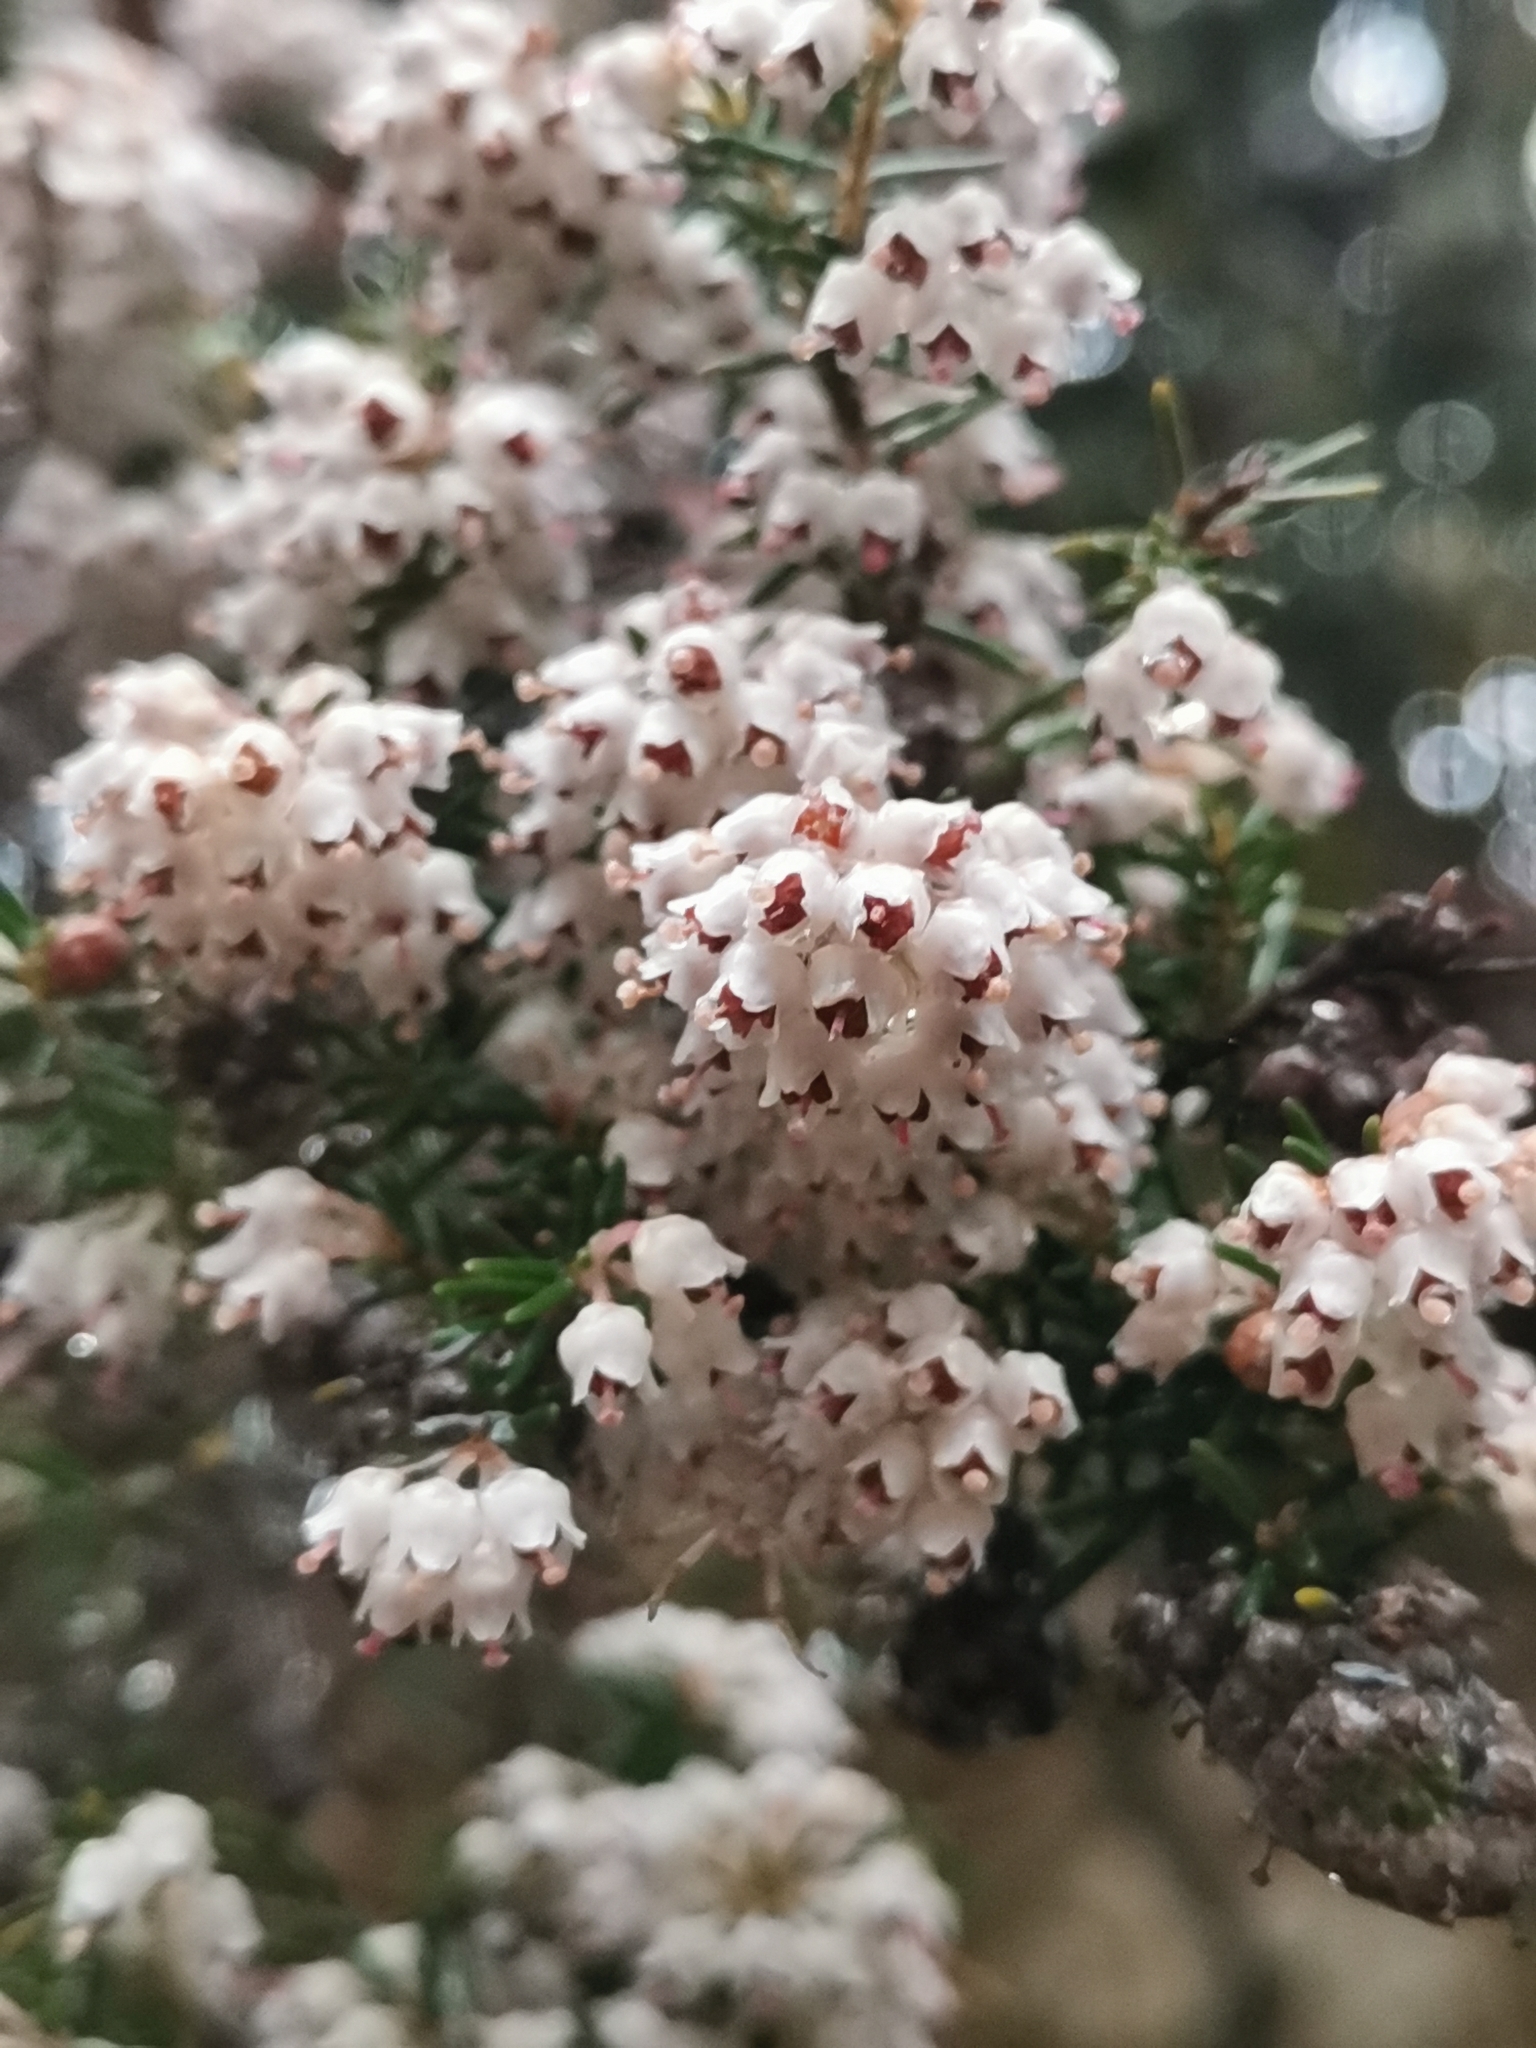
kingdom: Plantae
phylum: Tracheophyta
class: Magnoliopsida
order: Ericales
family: Ericaceae
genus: Erica
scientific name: Erica arborea
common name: Tree heath
